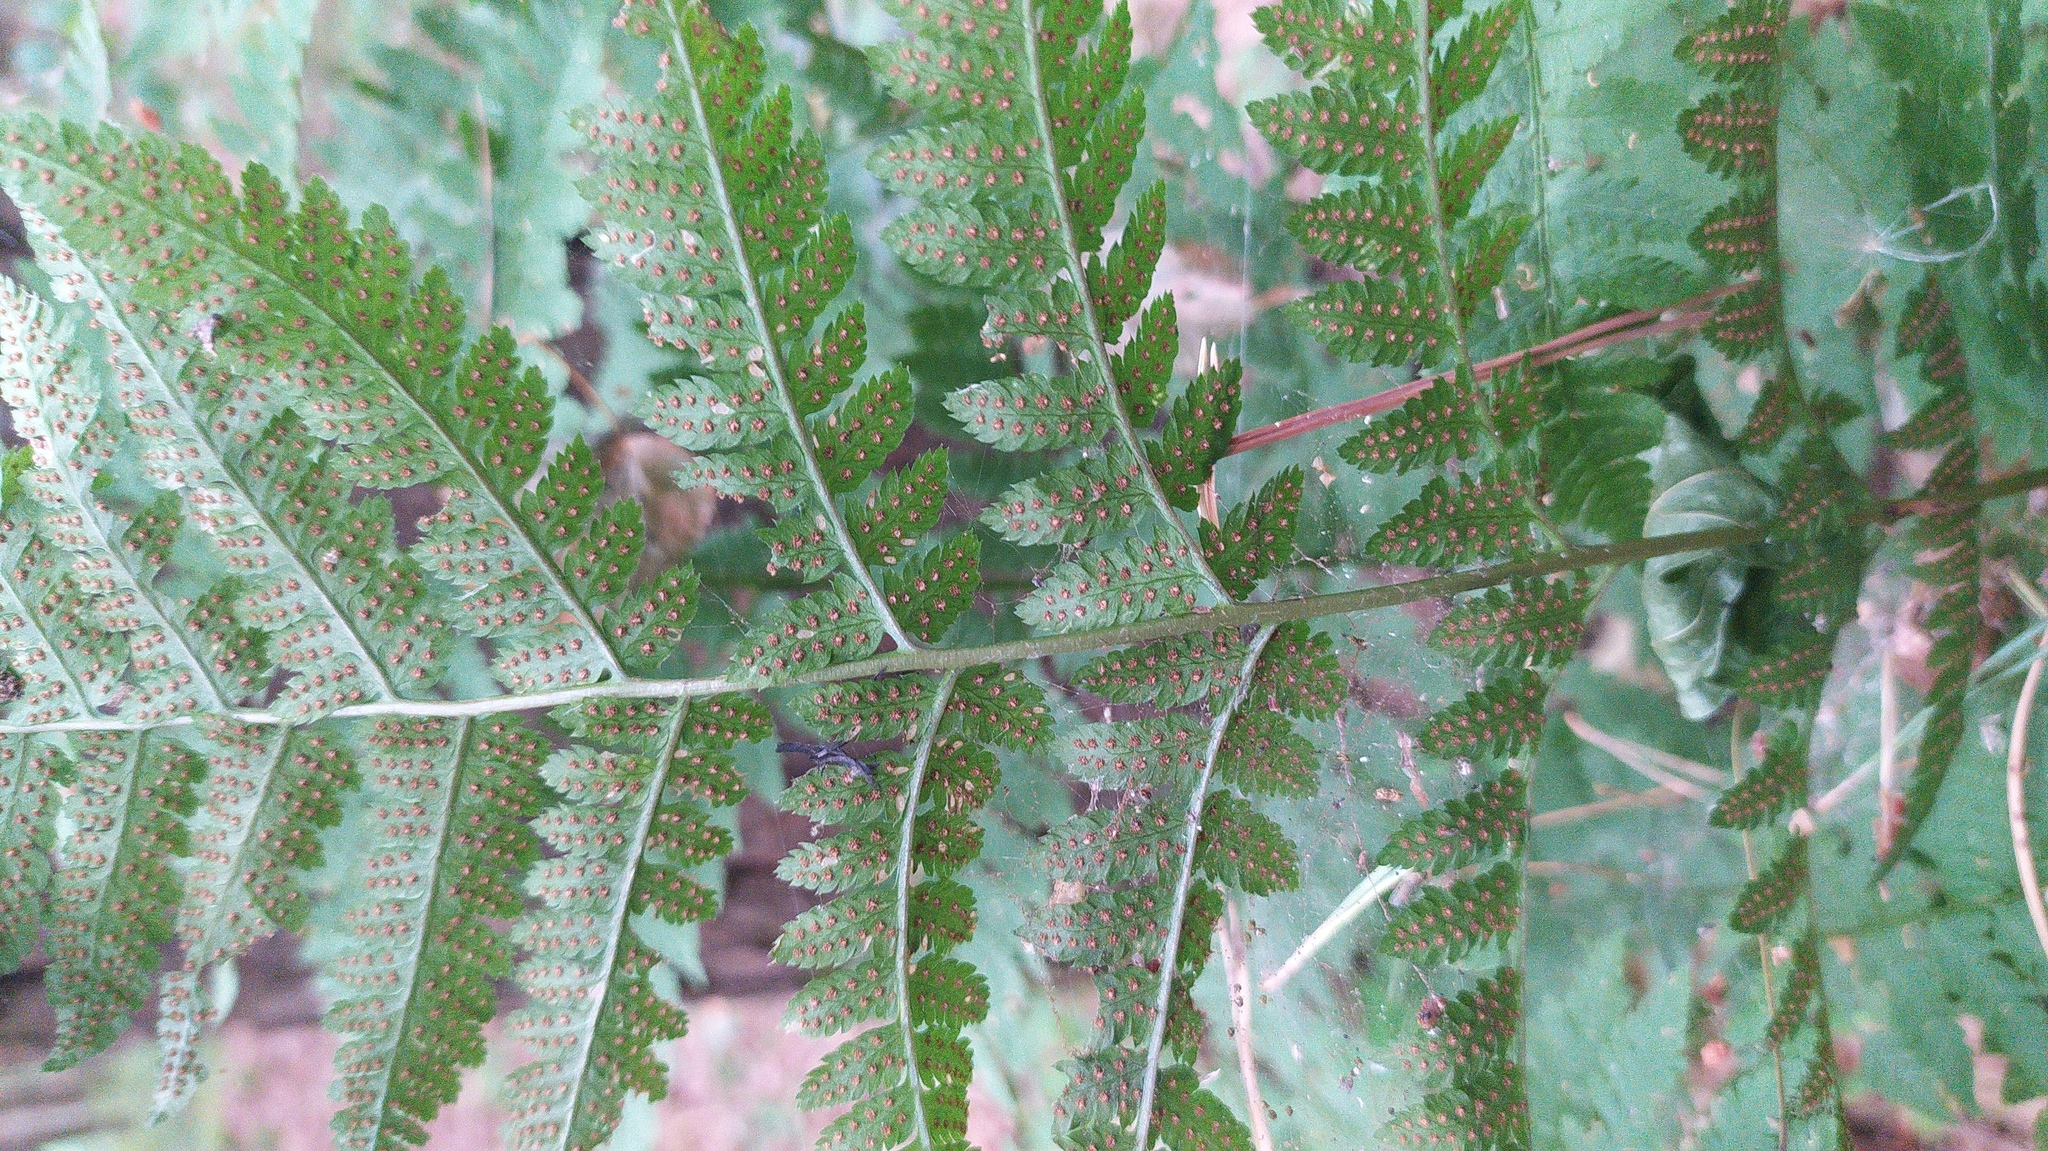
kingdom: Plantae
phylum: Tracheophyta
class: Polypodiopsida
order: Polypodiales
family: Dryopteridaceae
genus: Dryopteris
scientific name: Dryopteris filix-mas
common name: Male fern
